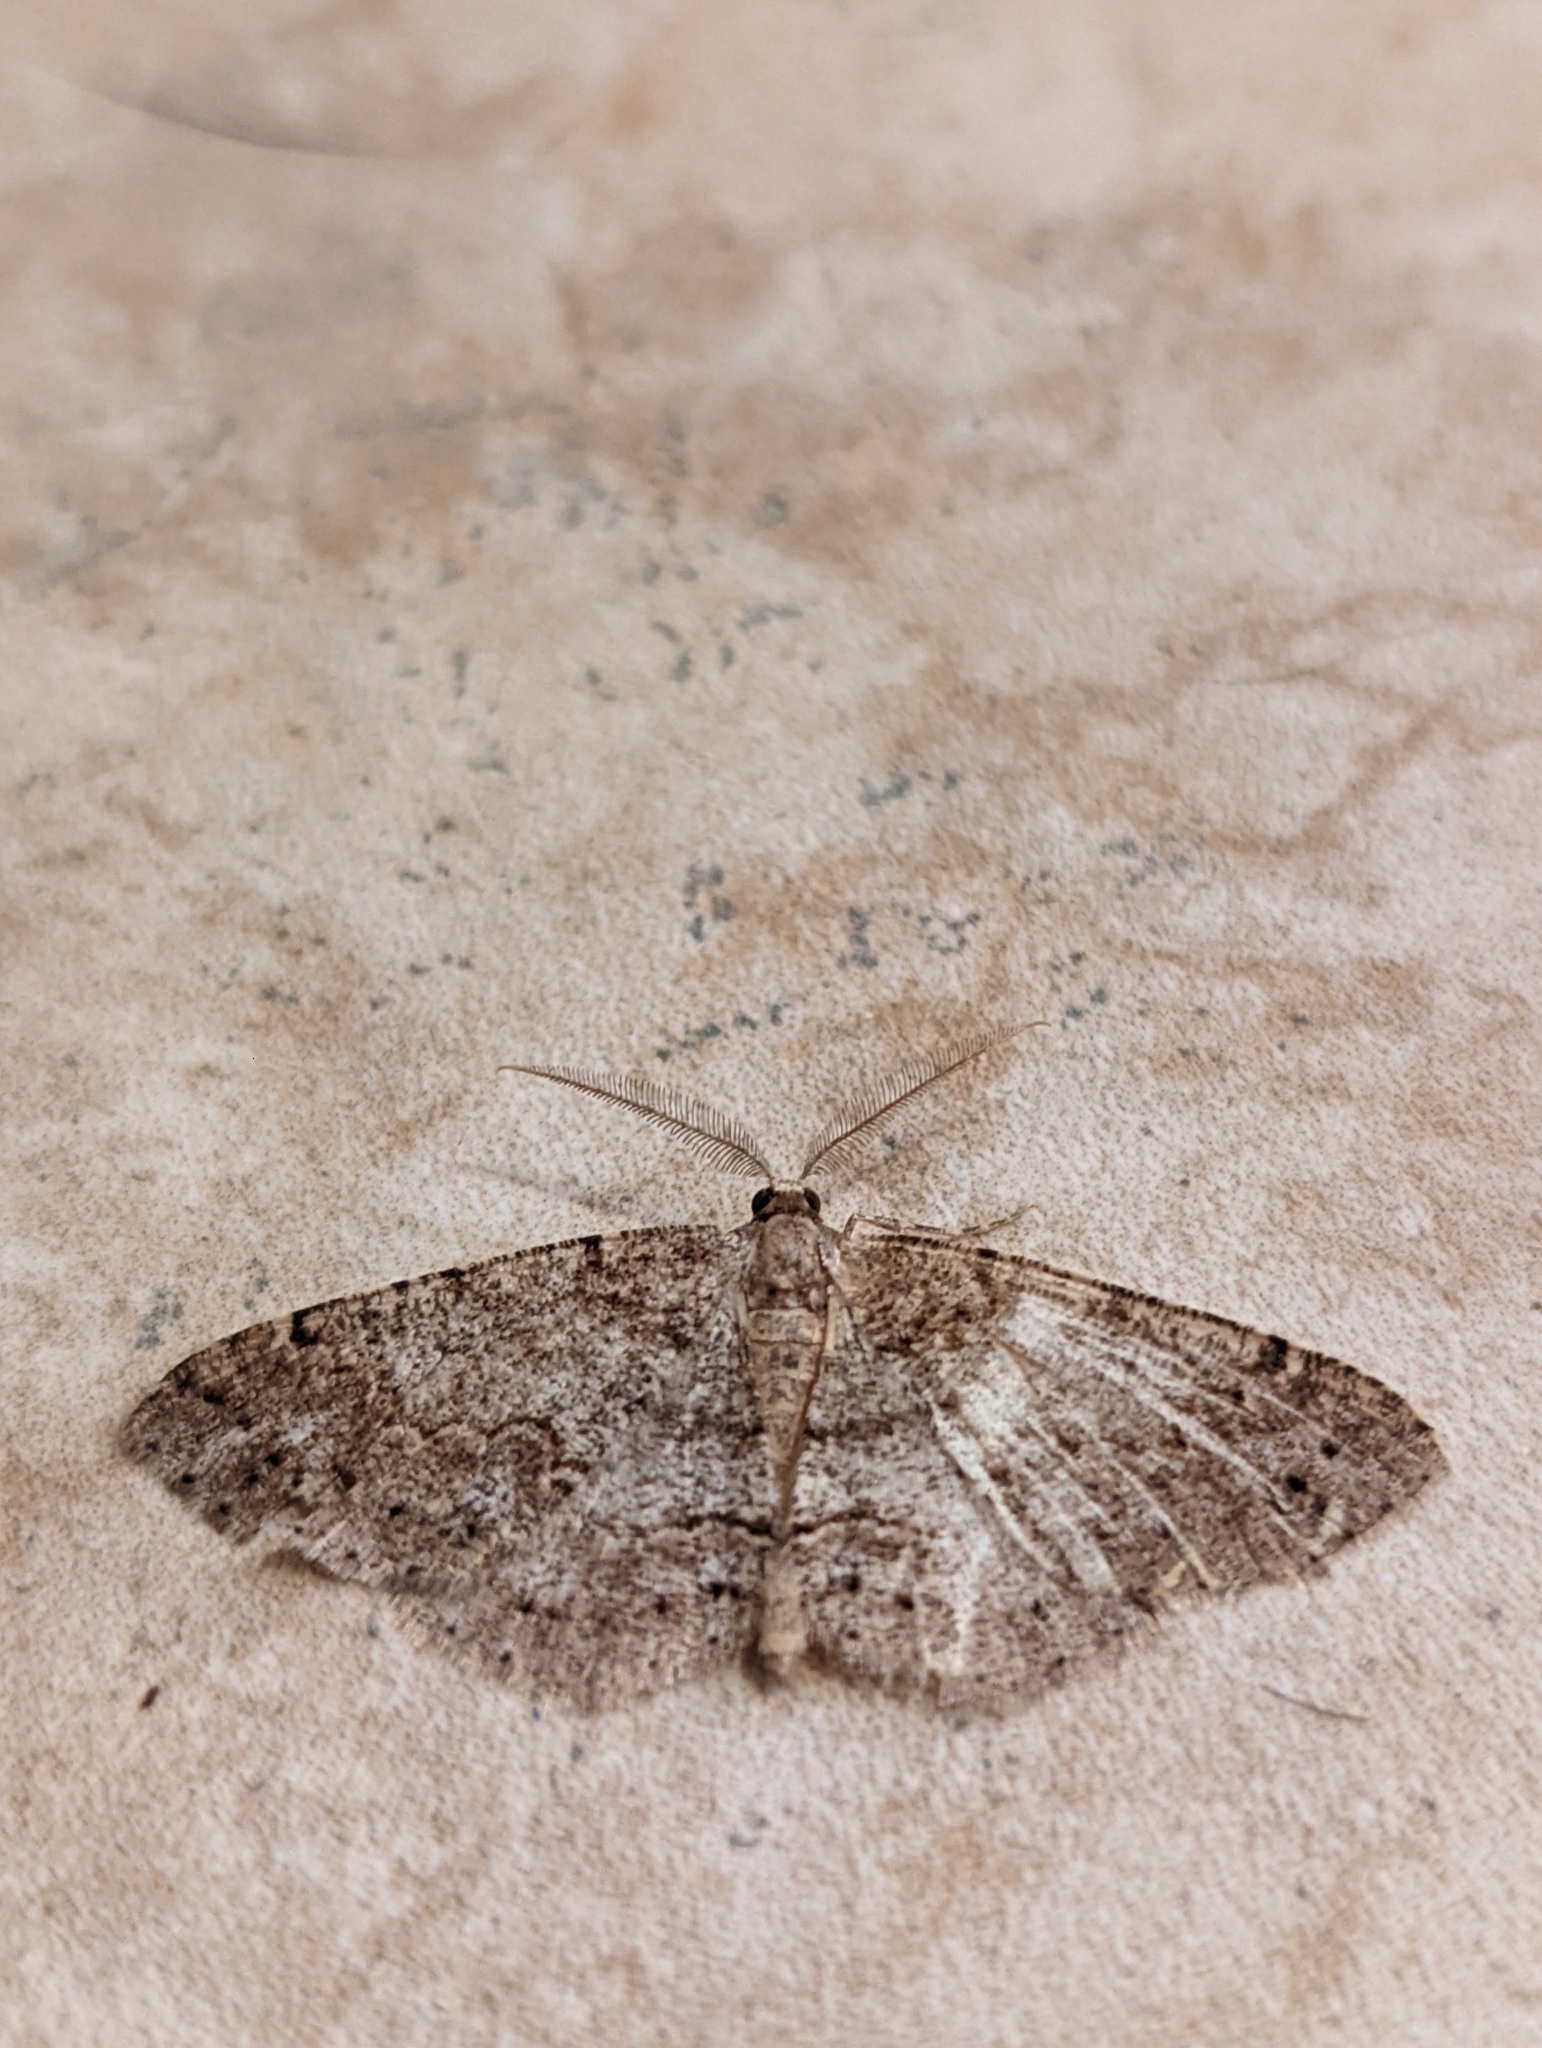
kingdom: Animalia
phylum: Arthropoda
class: Insecta
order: Lepidoptera
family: Geometridae
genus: Melanolophia
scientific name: Melanolophia imitata
